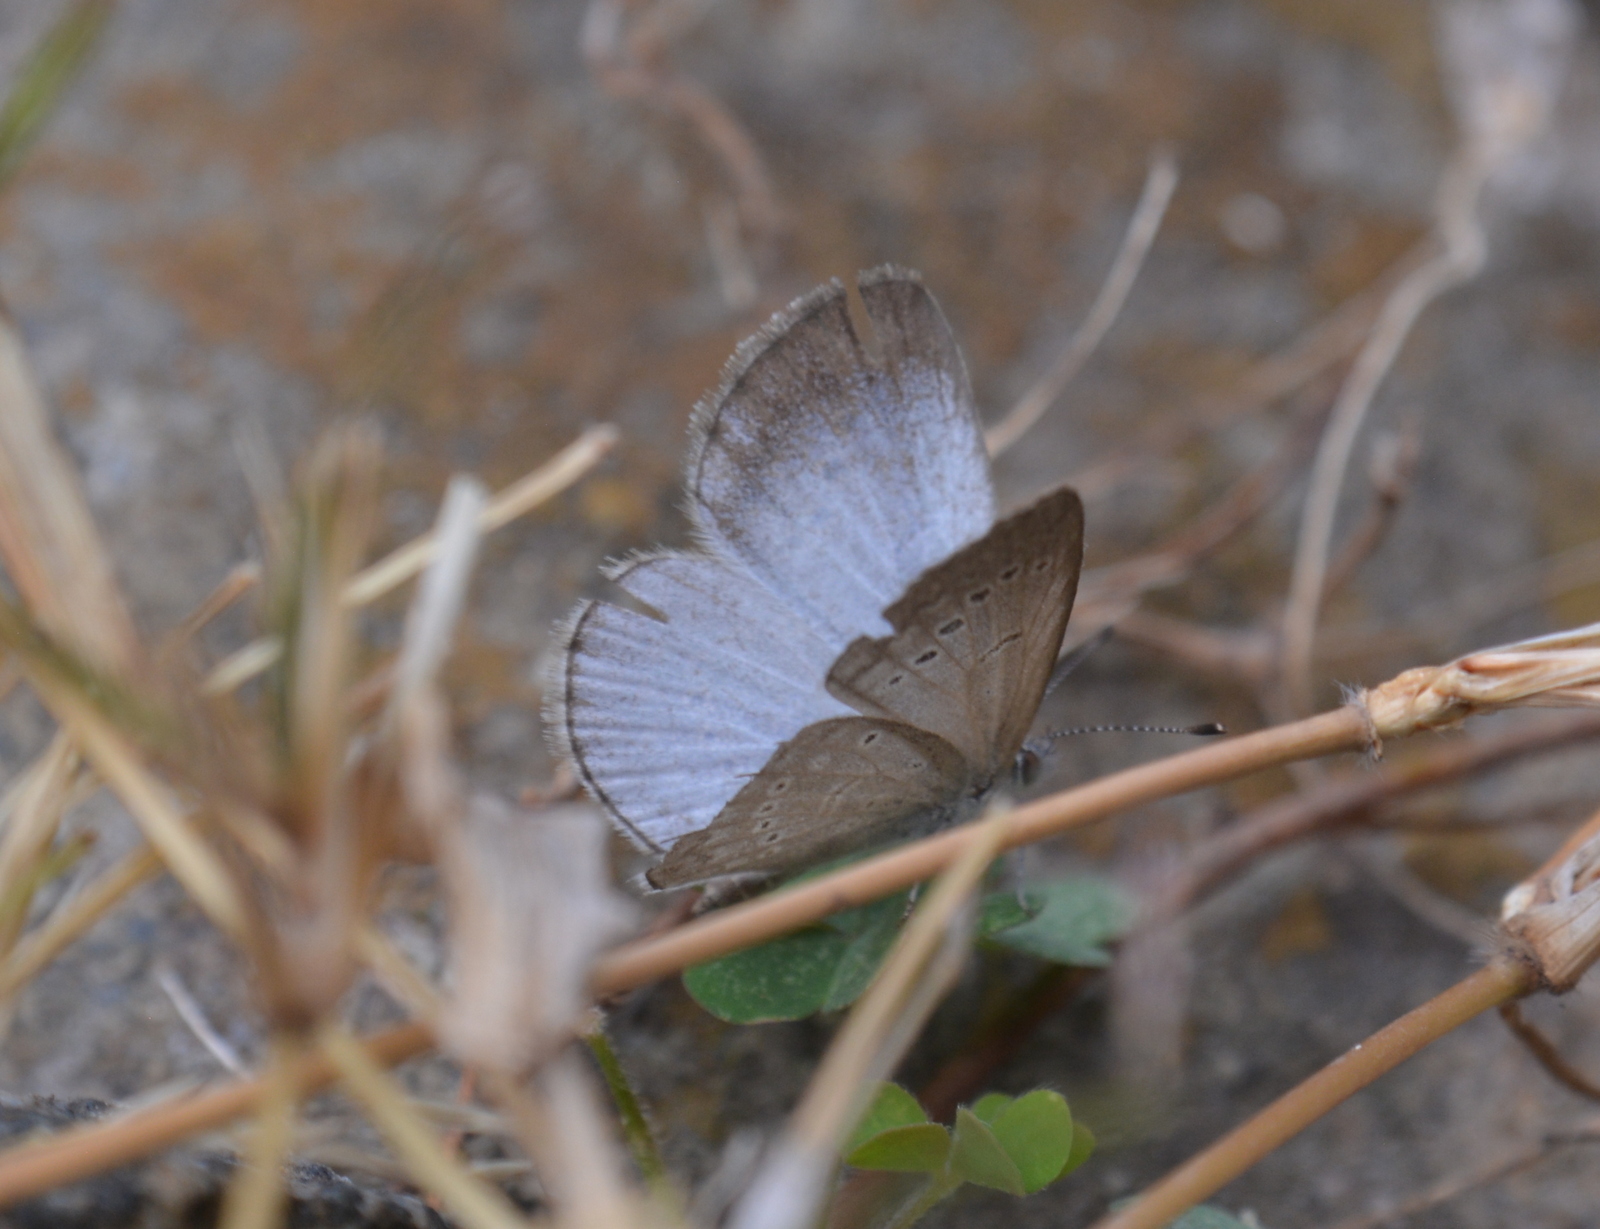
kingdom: Animalia
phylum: Arthropoda
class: Insecta
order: Lepidoptera
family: Lycaenidae
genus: Pseudozizeeria
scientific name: Pseudozizeeria maha
